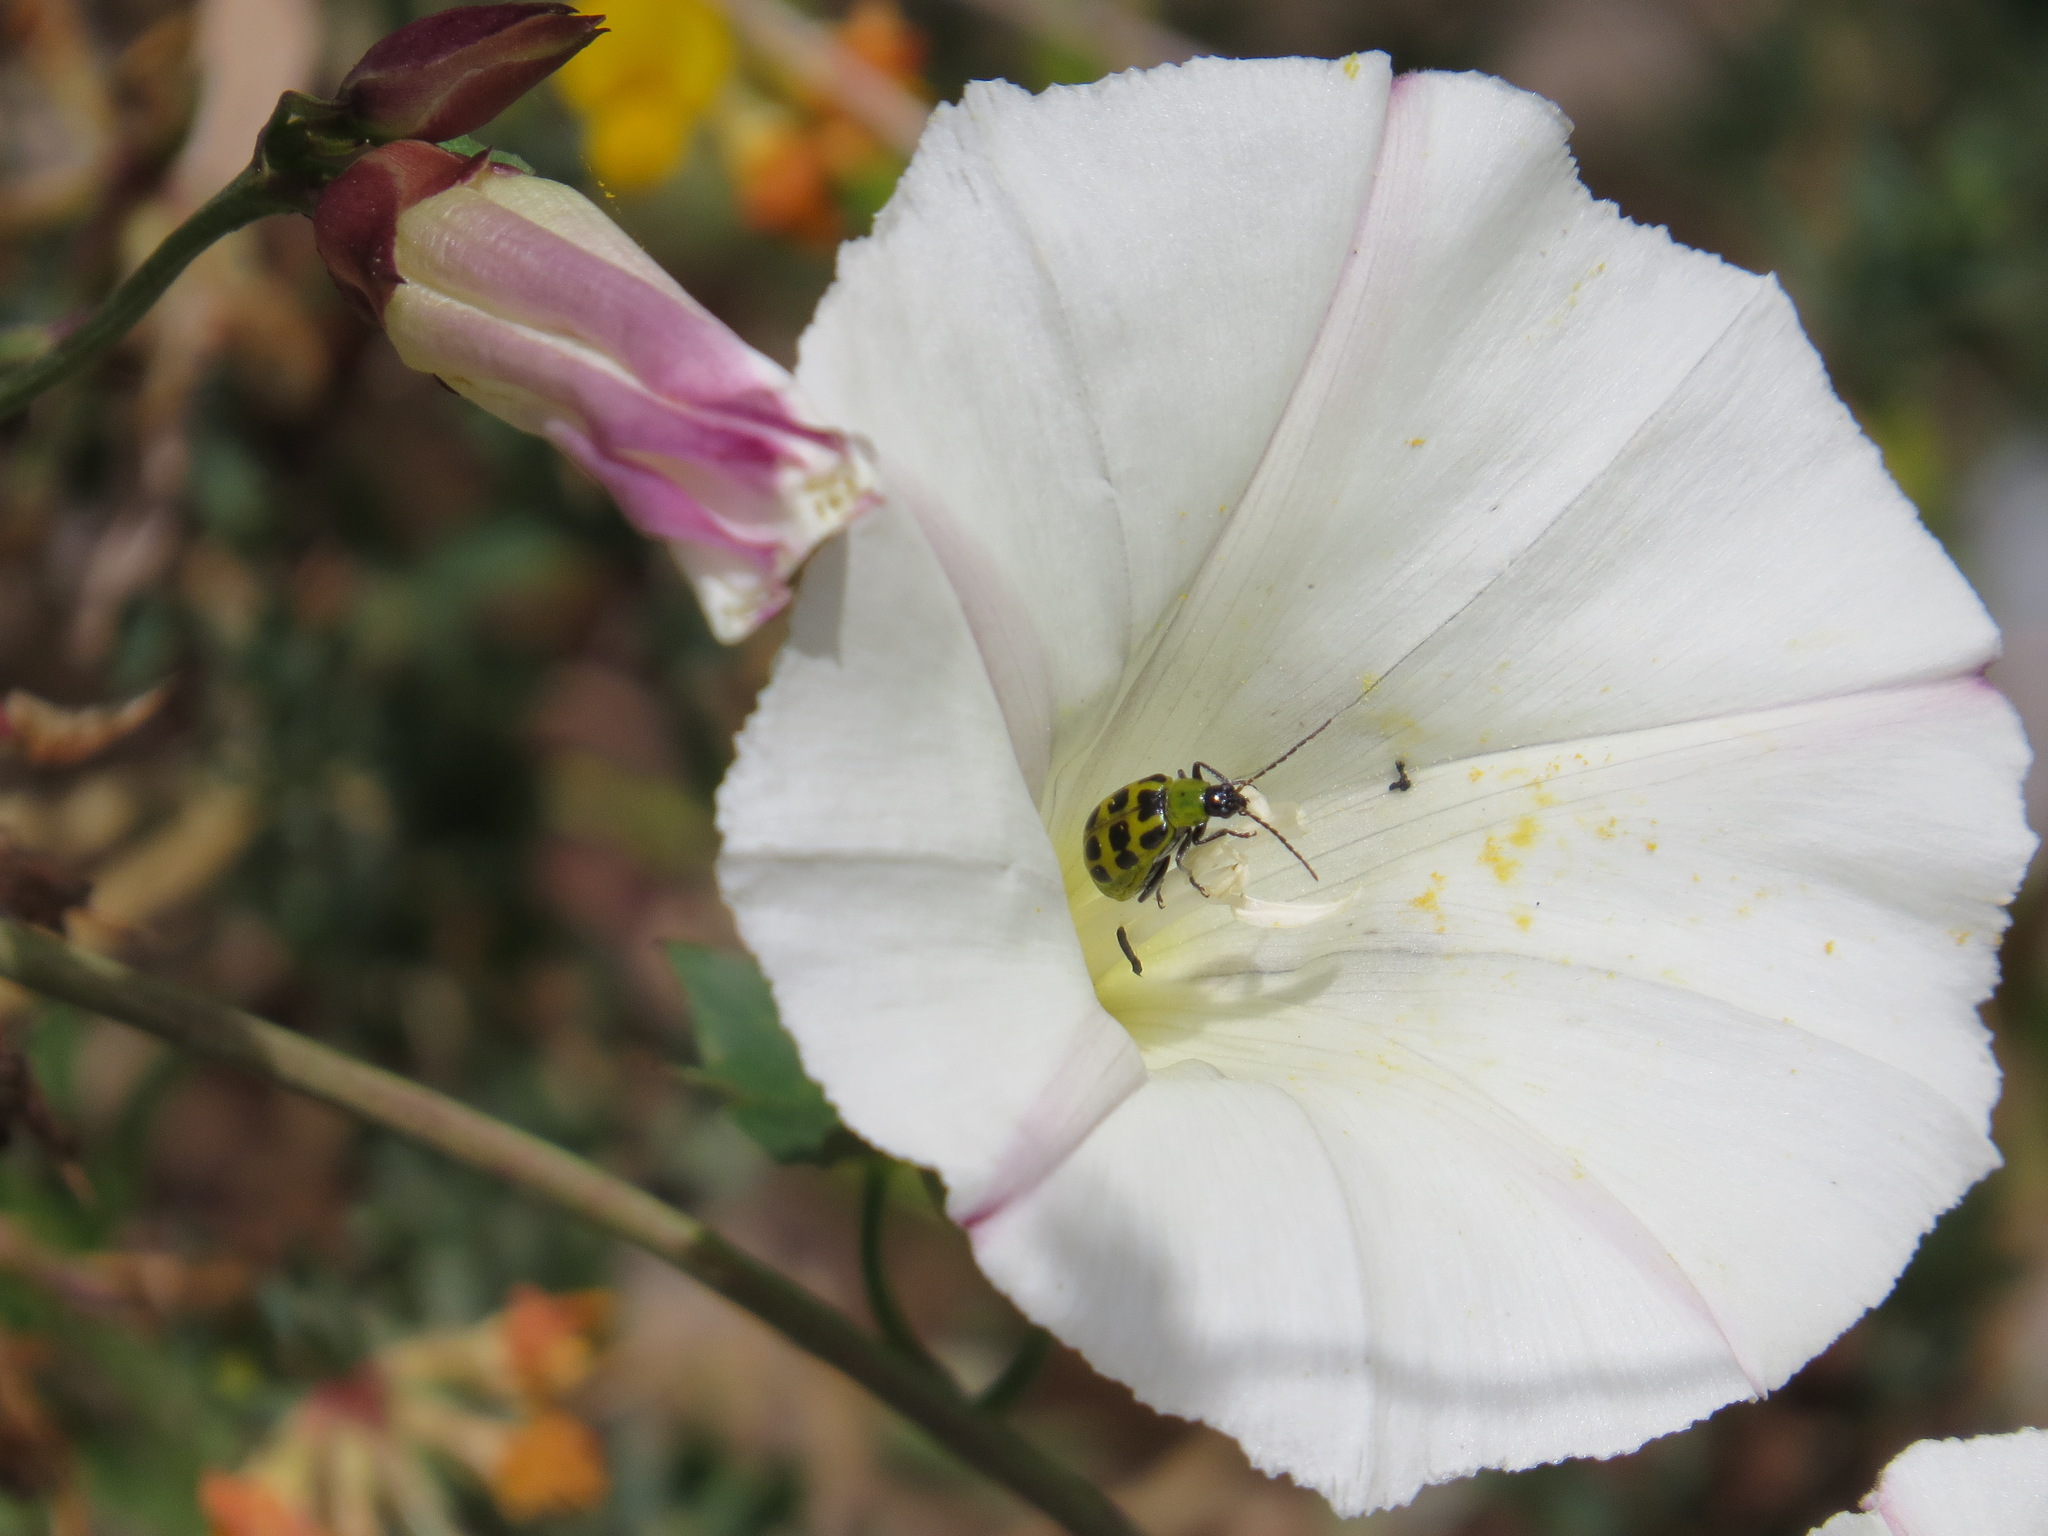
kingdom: Animalia
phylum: Arthropoda
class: Insecta
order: Coleoptera
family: Chrysomelidae
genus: Diabrotica
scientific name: Diabrotica undecimpunctata
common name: Spotted cucumber beetle
